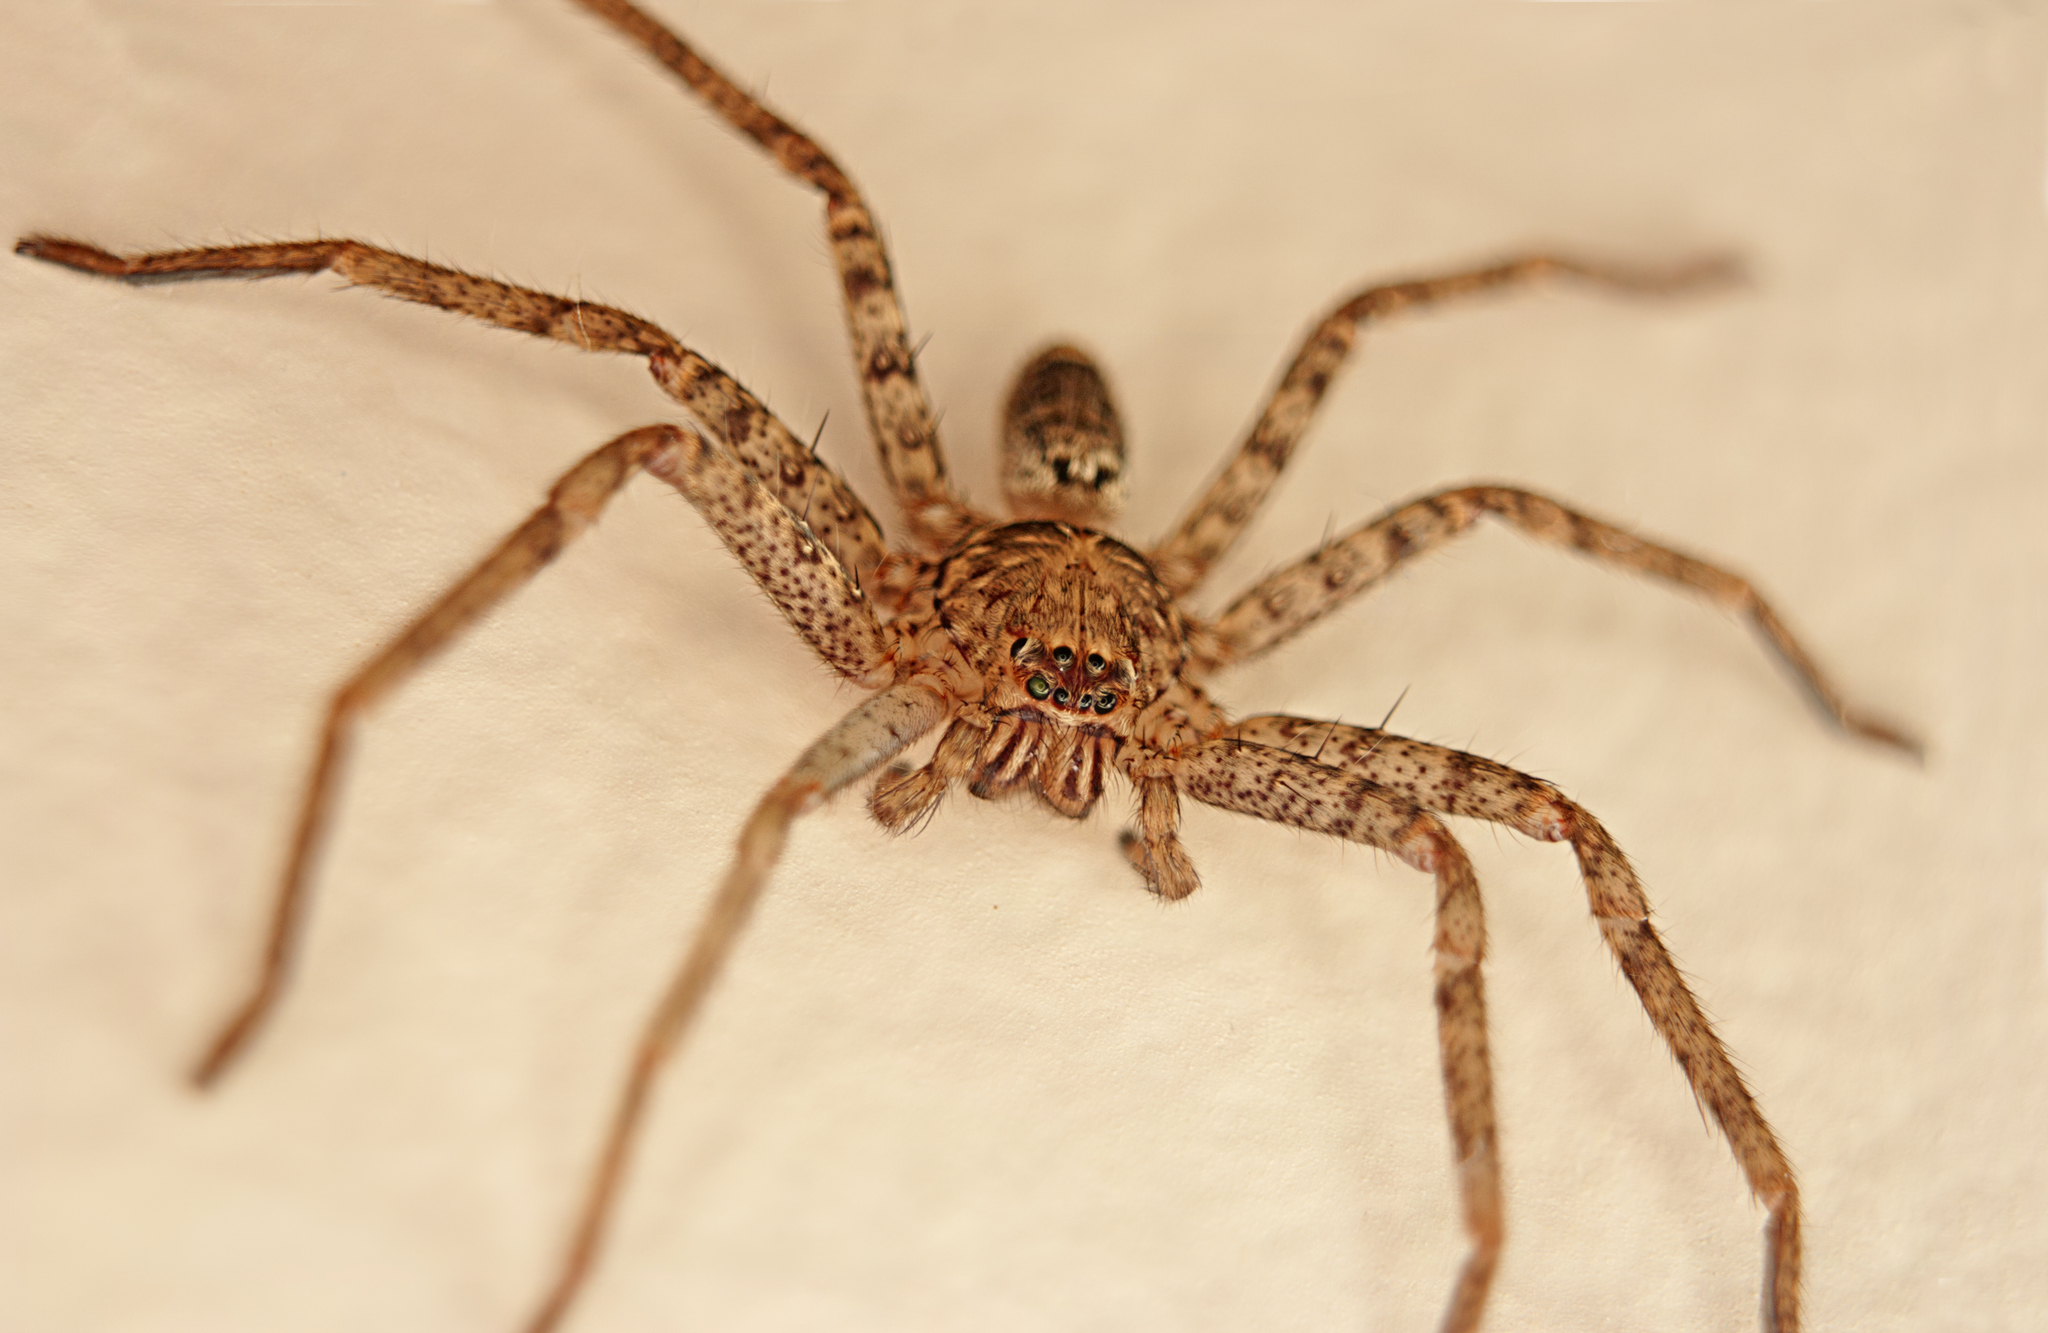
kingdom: Animalia
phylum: Arthropoda
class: Arachnida
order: Araneae
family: Sparassidae
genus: Heteropoda
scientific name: Heteropoda jugulans
